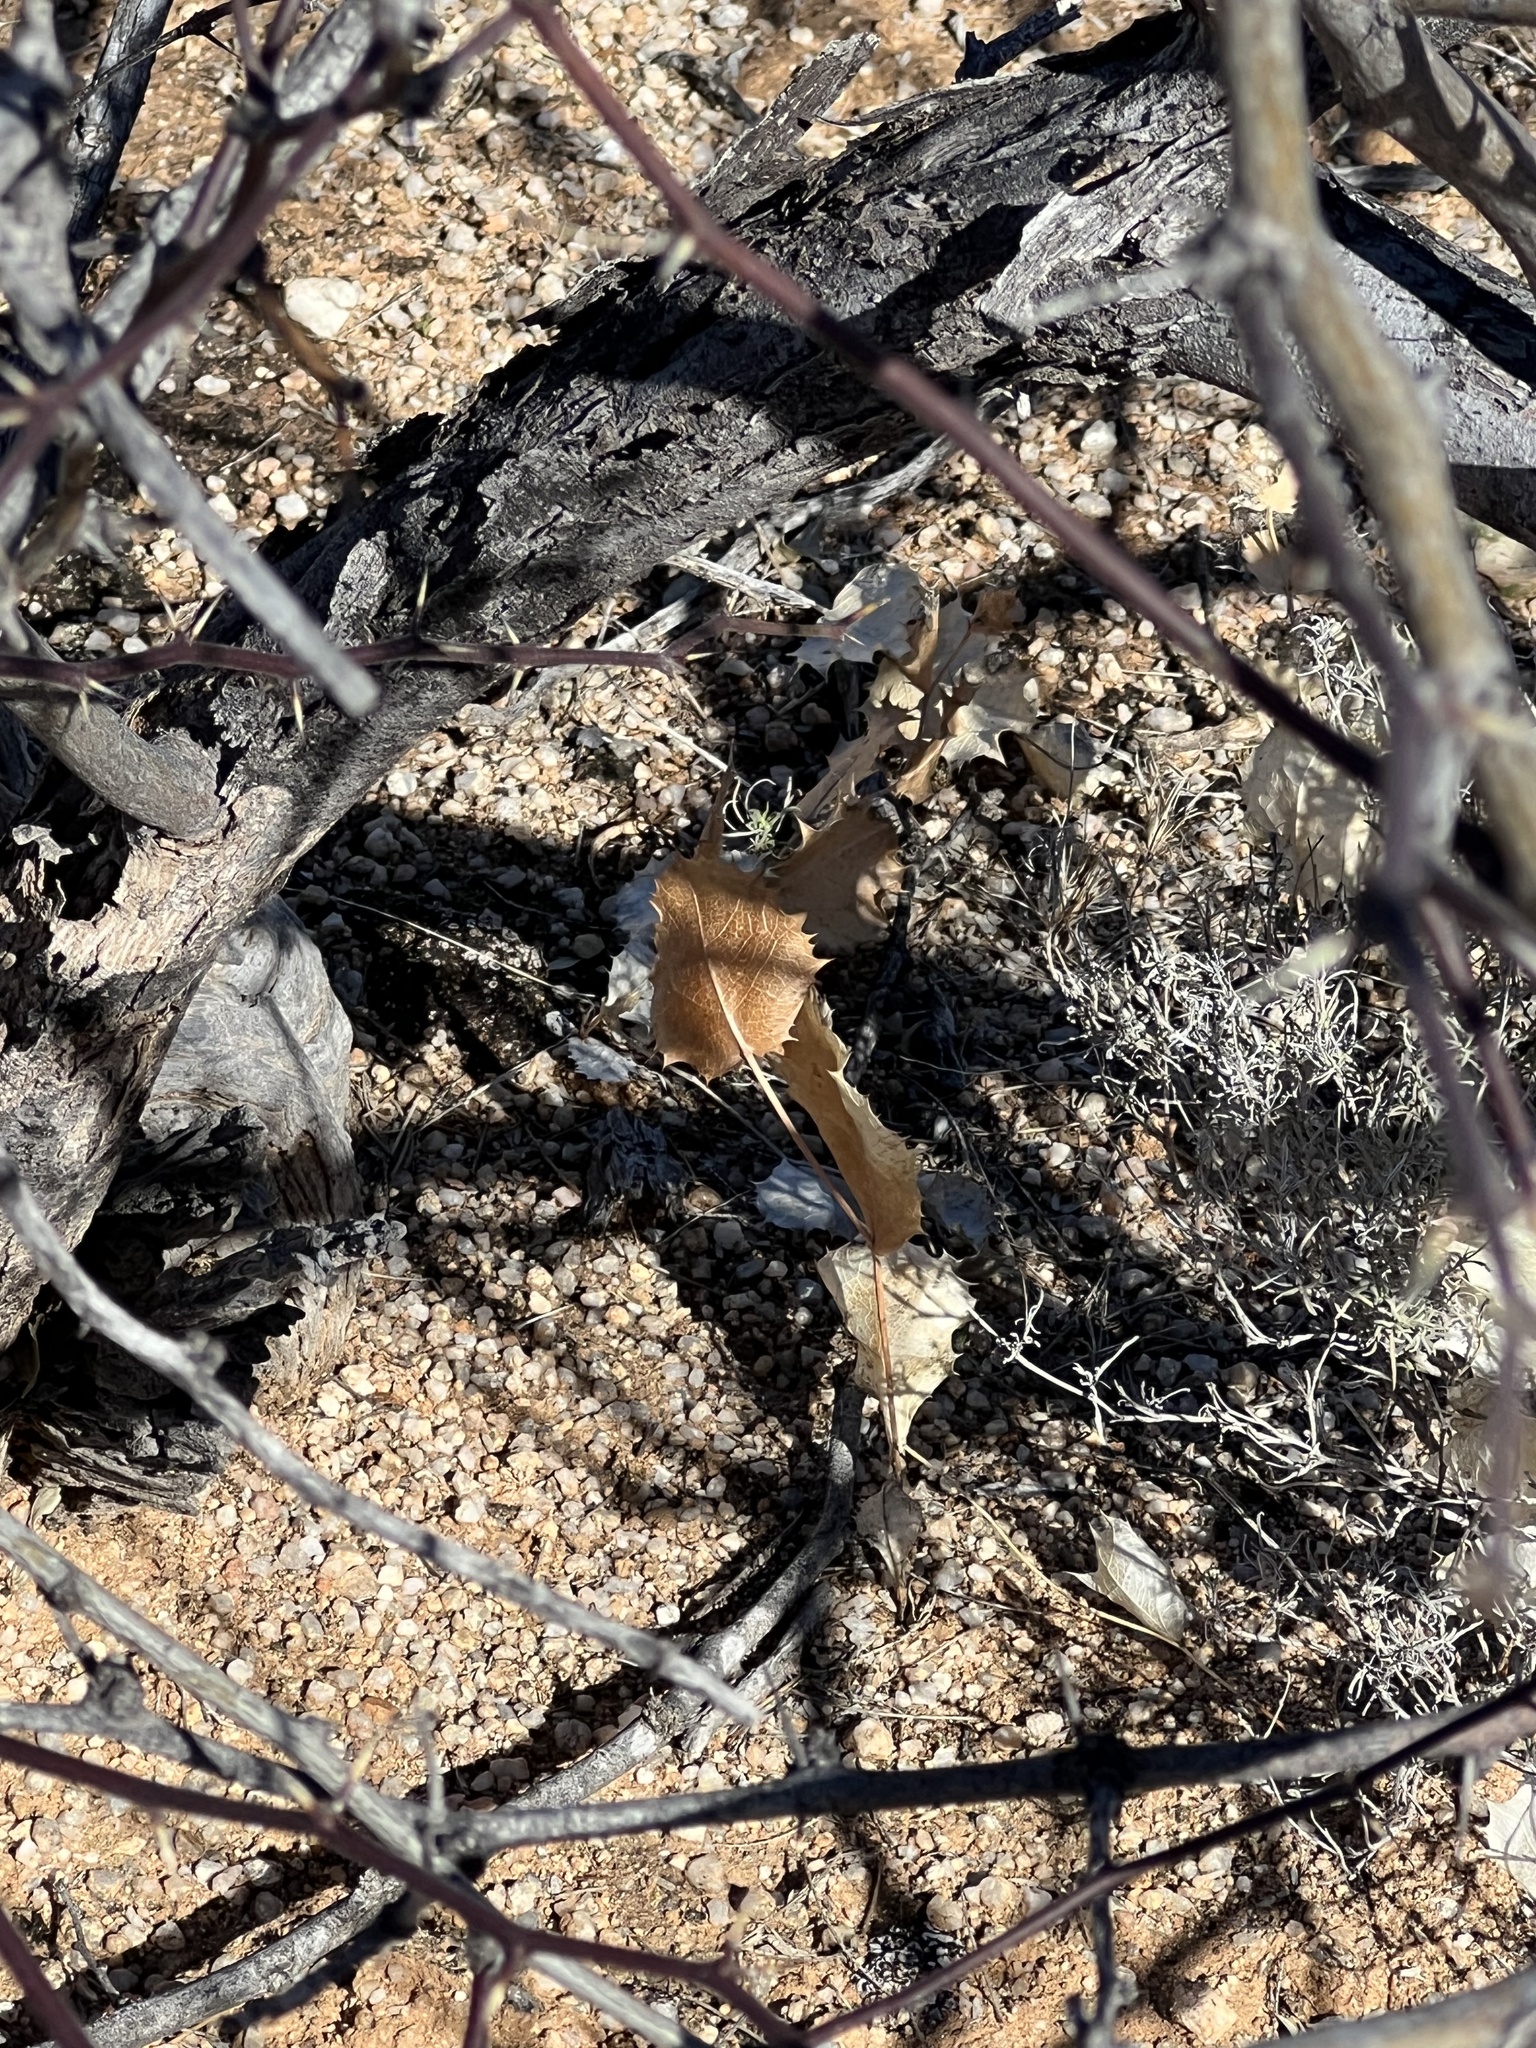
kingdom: Plantae
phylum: Tracheophyta
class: Magnoliopsida
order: Asterales
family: Asteraceae
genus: Acourtia
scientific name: Acourtia nana
